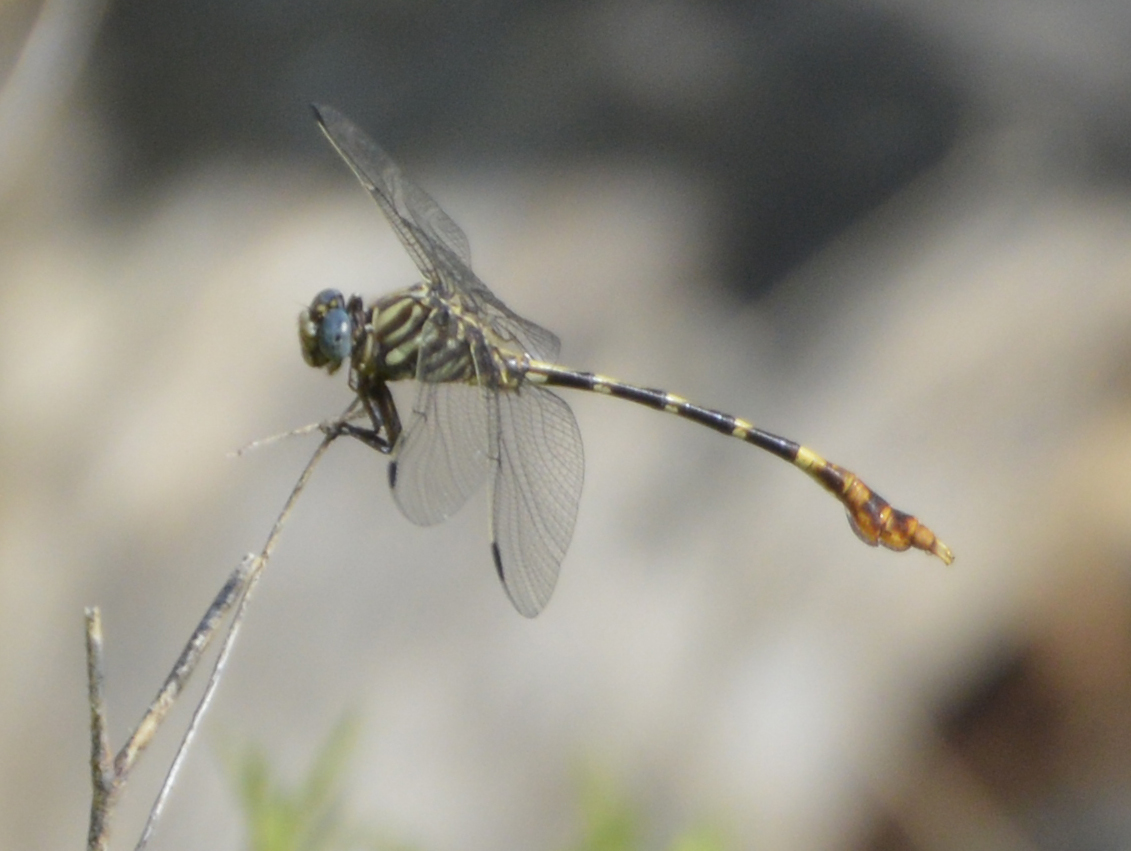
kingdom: Animalia
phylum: Arthropoda
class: Insecta
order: Odonata
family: Gomphidae
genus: Phyllogomphoides
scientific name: Phyllogomphoides albrighti
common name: Five-striped leaftail
